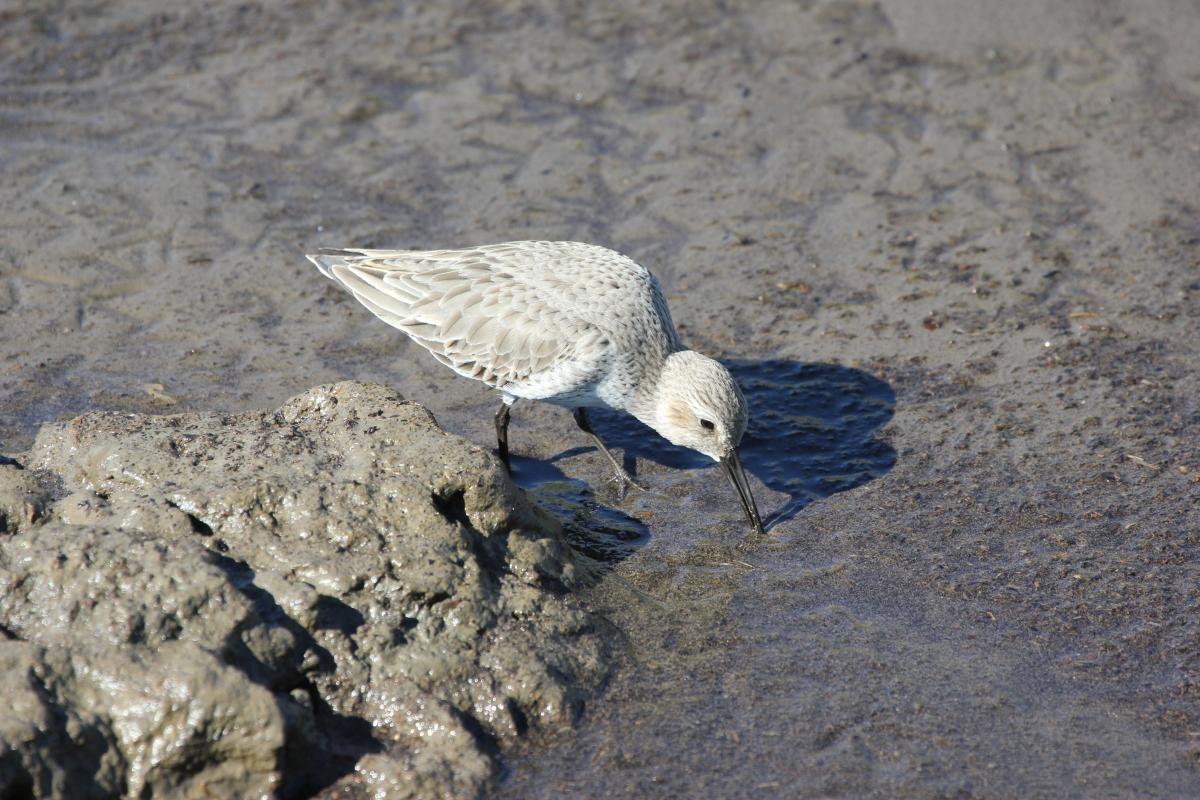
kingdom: Animalia
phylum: Chordata
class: Aves
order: Charadriiformes
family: Scolopacidae
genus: Calidris
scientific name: Calidris alpina
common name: Dunlin
